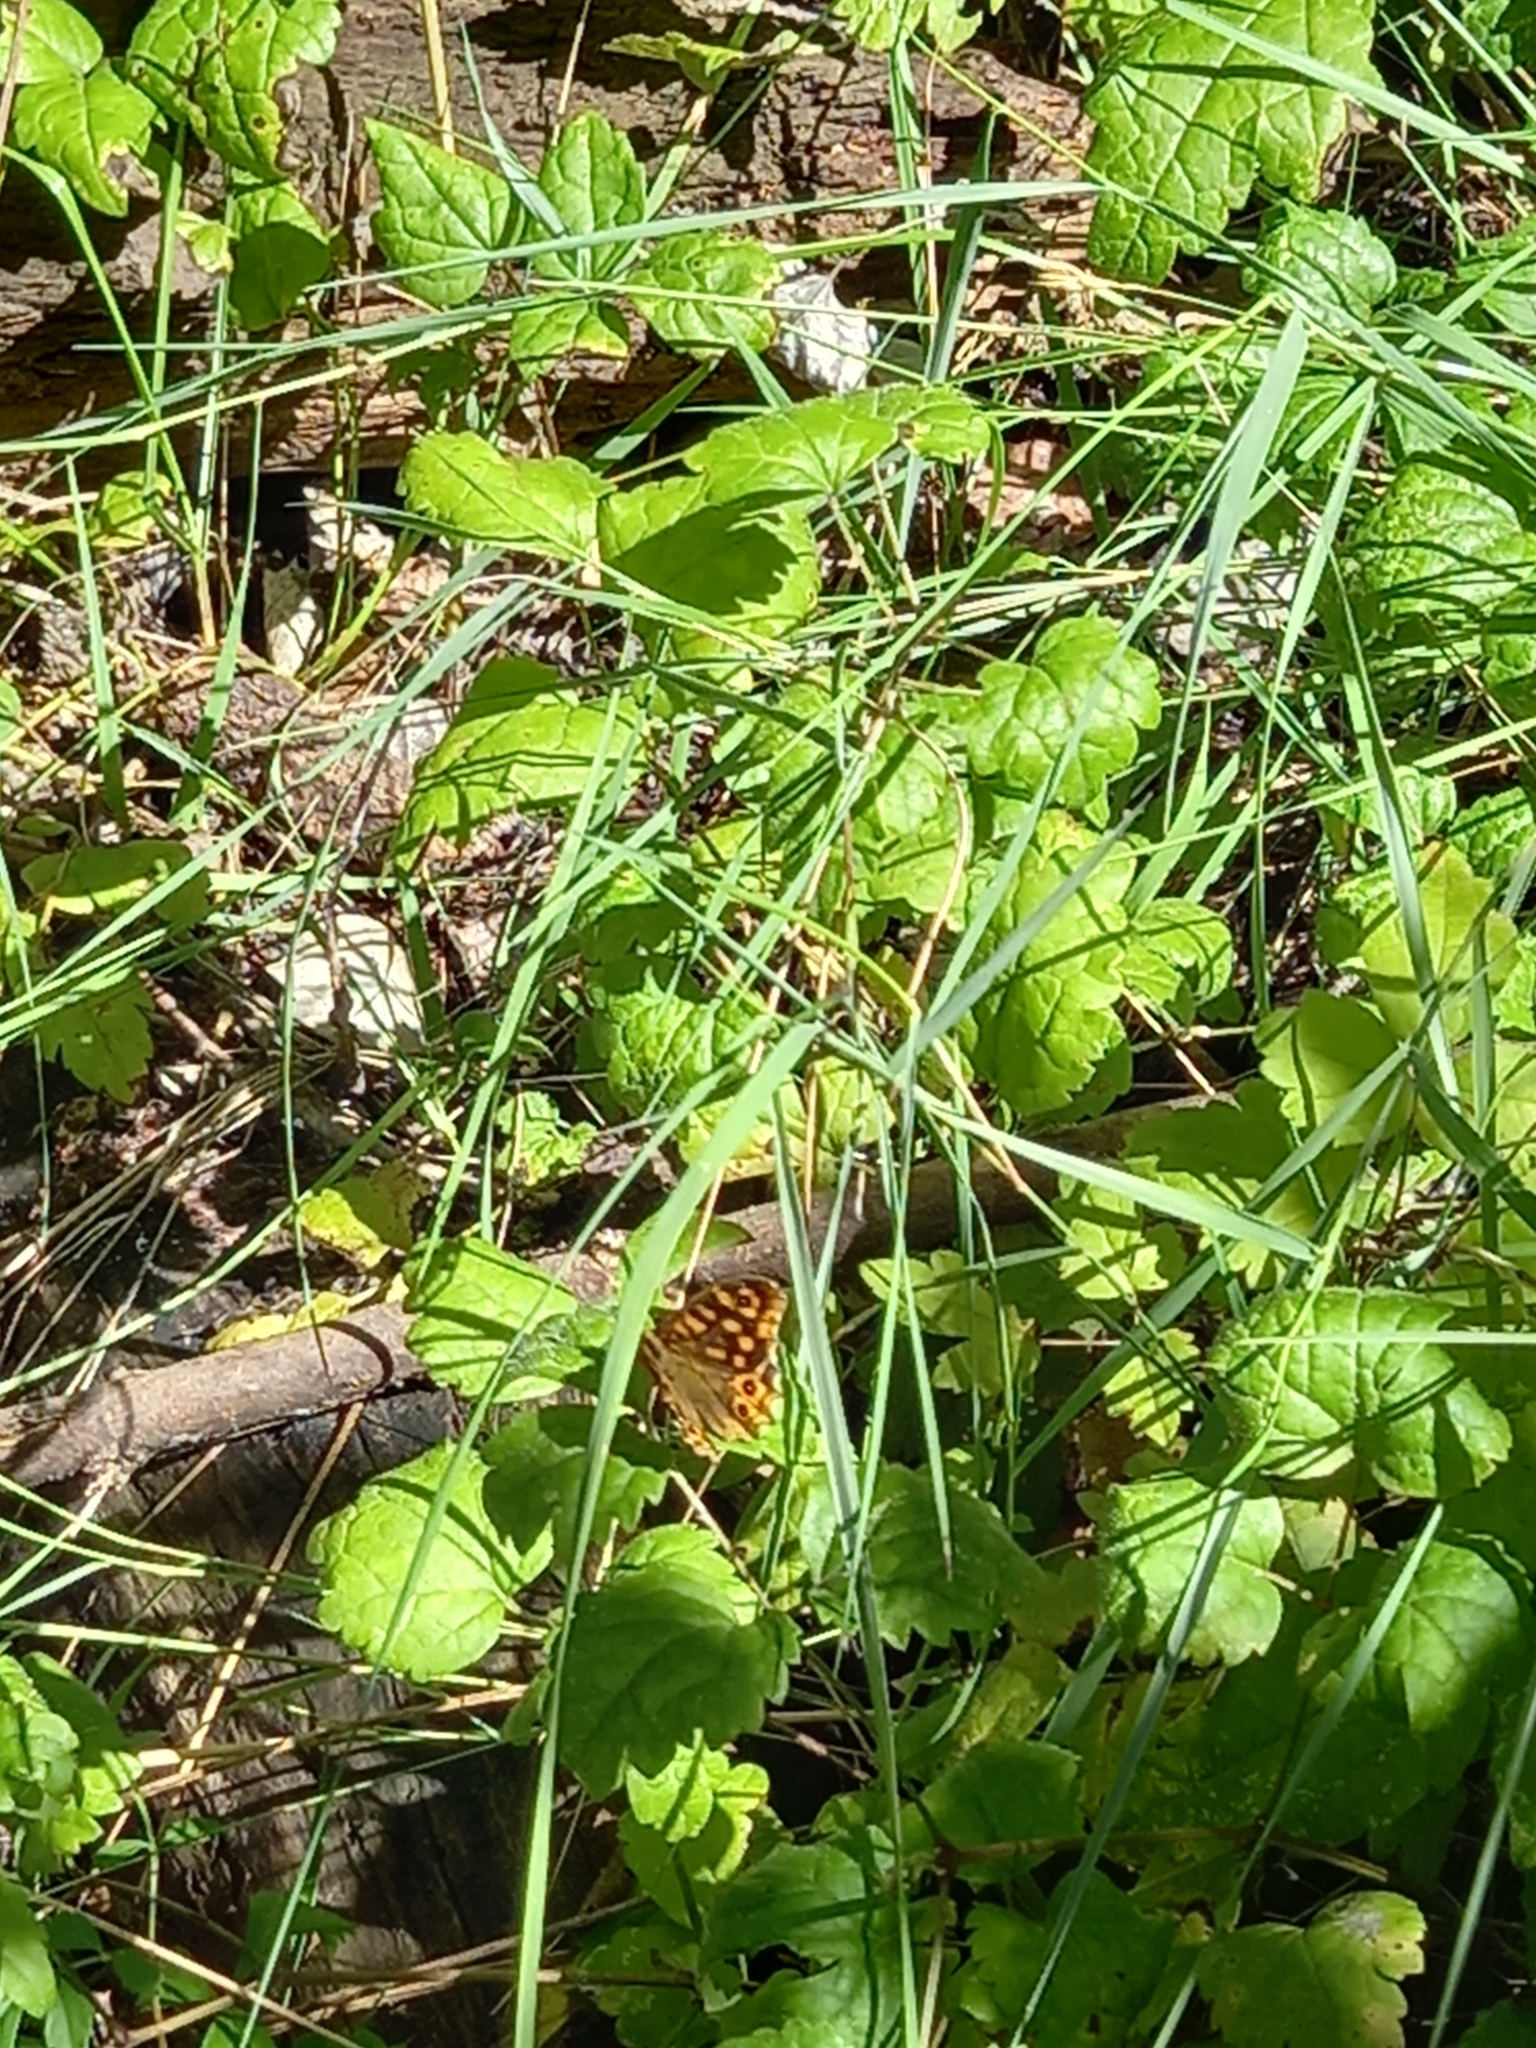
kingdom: Animalia
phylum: Arthropoda
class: Insecta
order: Lepidoptera
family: Nymphalidae
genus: Pararge
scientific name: Pararge aegeria
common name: Speckled wood
